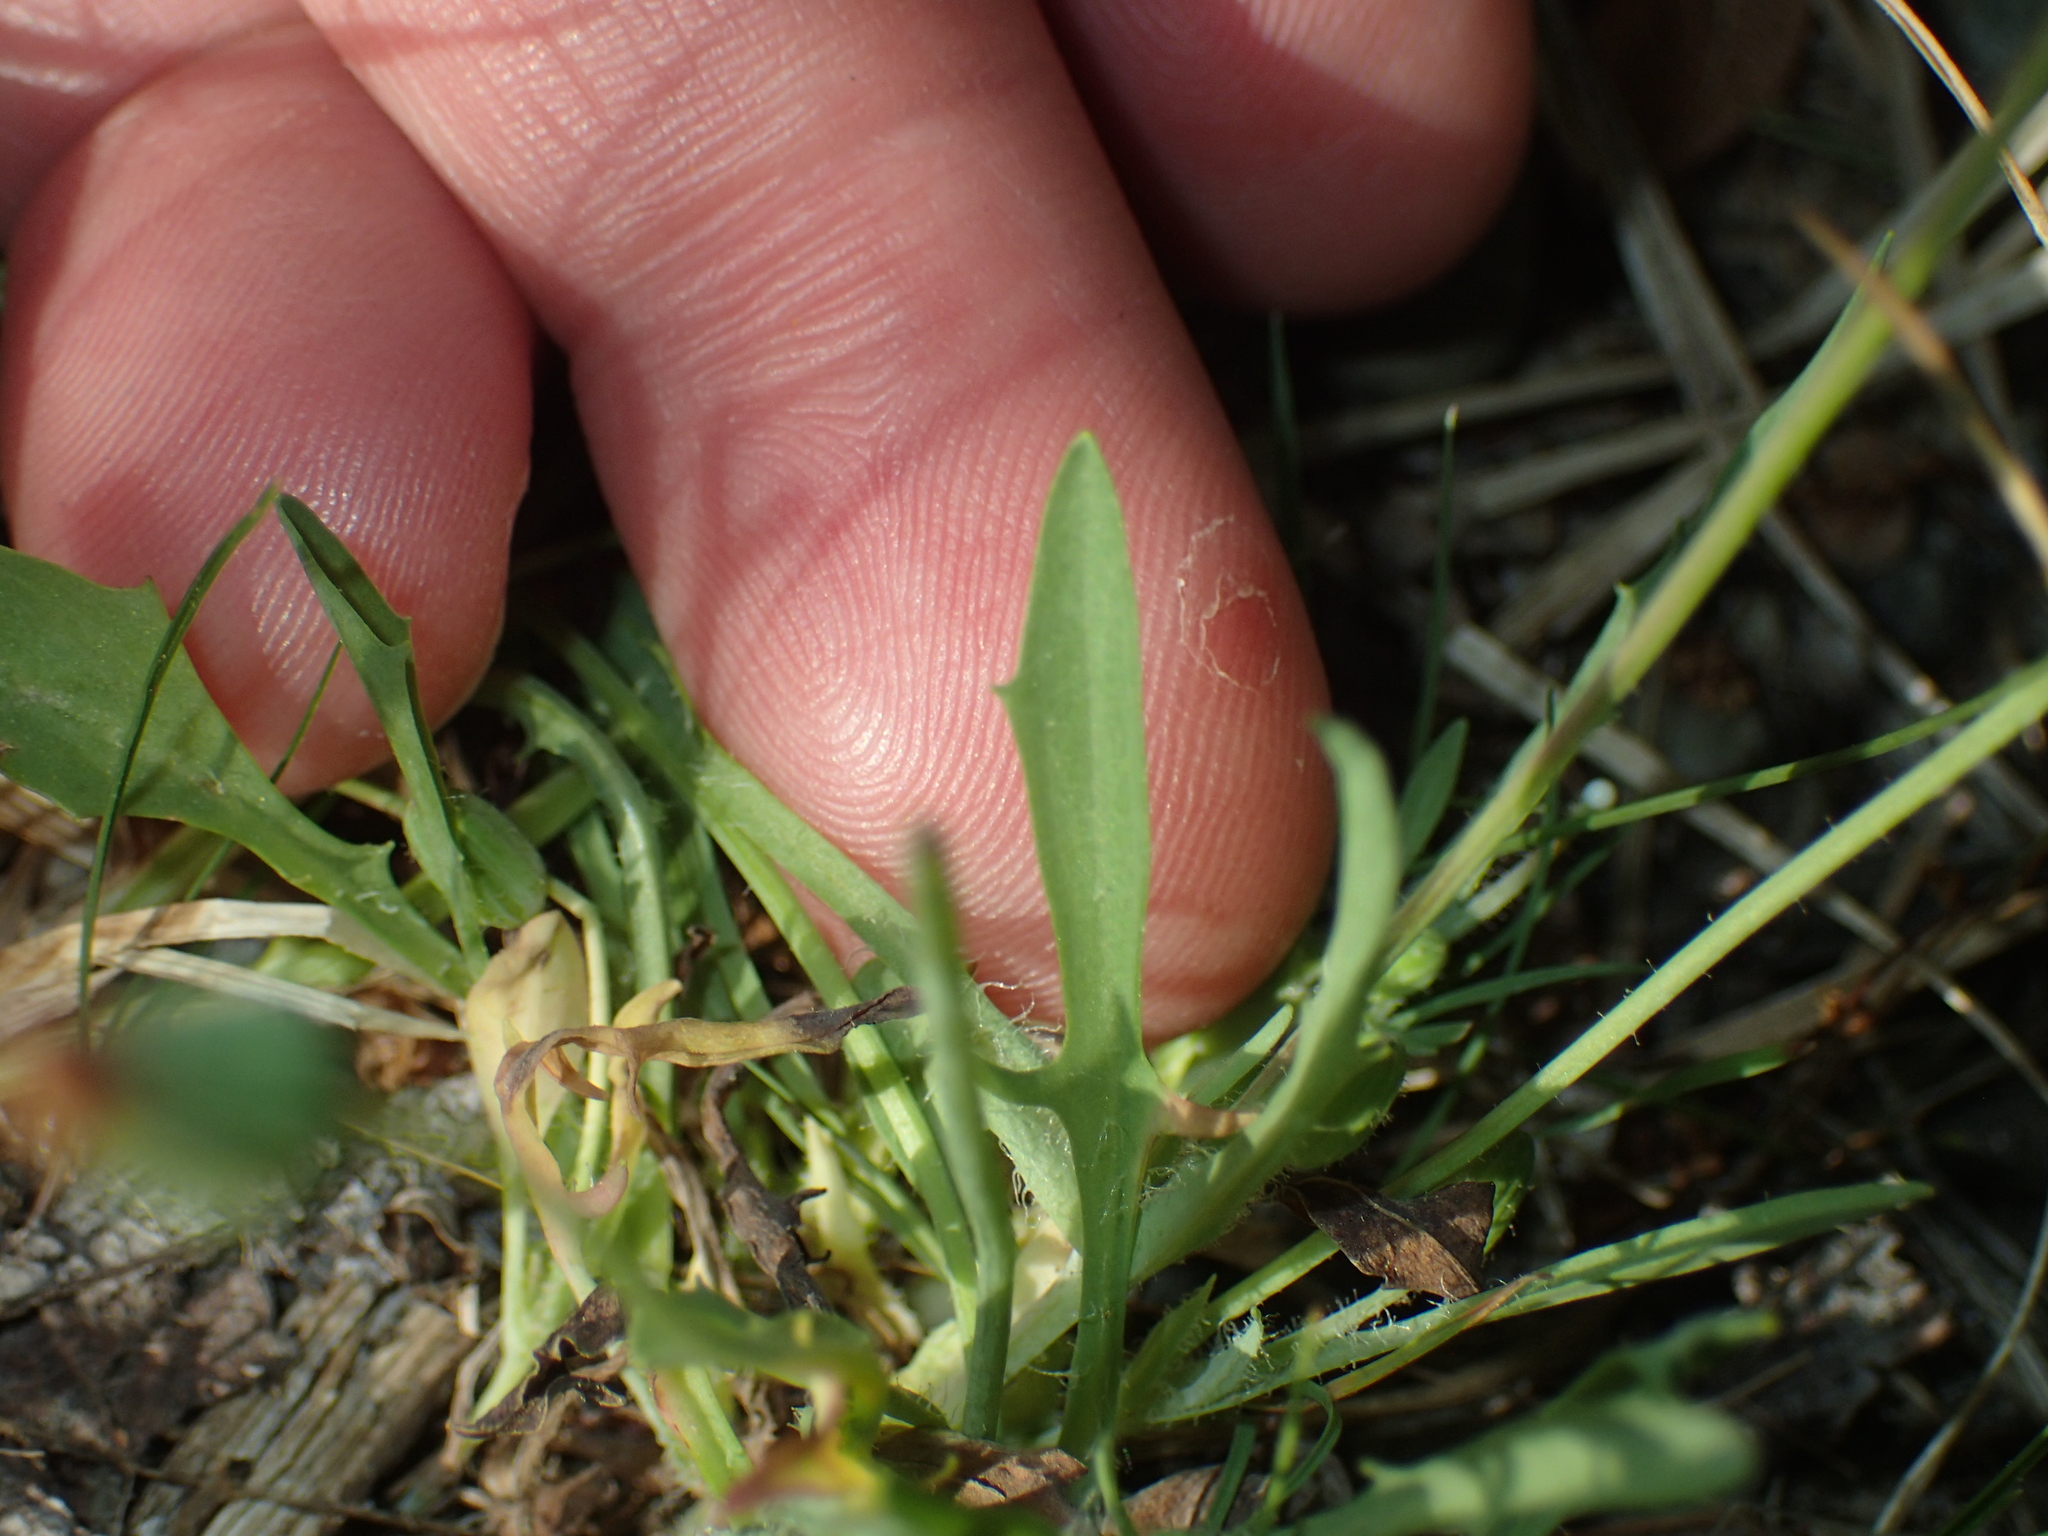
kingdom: Plantae
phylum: Tracheophyta
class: Magnoliopsida
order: Asterales
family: Asteraceae
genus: Krigia
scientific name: Krigia virginica
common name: Virginia dwarf-dandelion
